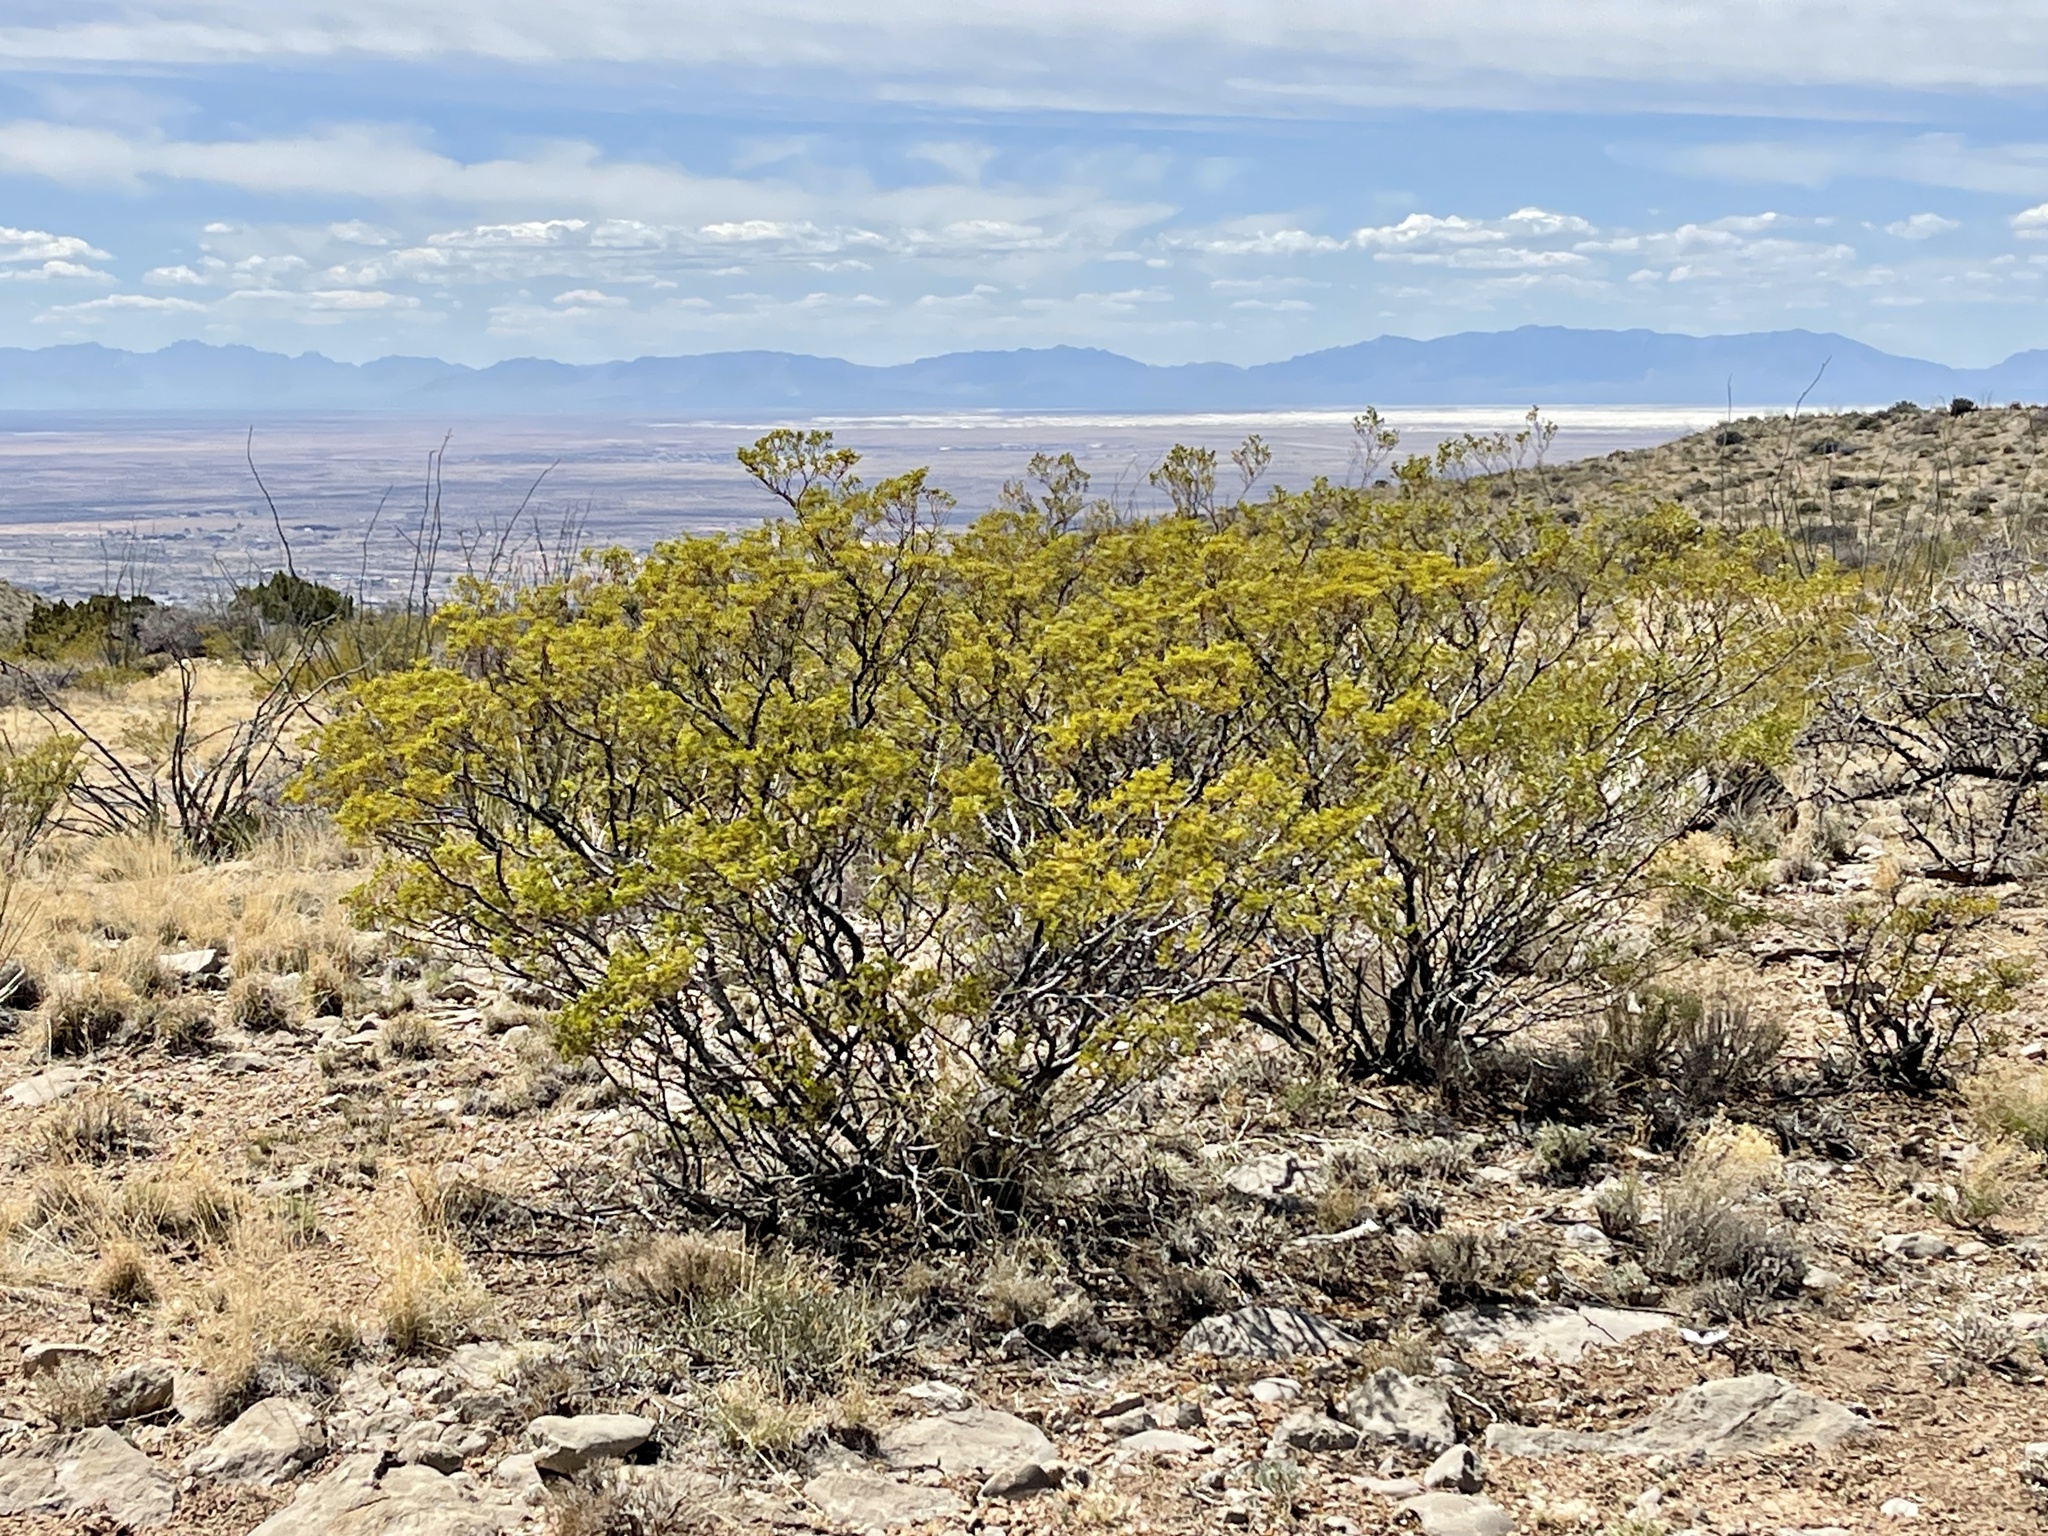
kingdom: Plantae
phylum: Tracheophyta
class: Magnoliopsida
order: Zygophyllales
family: Zygophyllaceae
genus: Larrea
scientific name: Larrea tridentata
